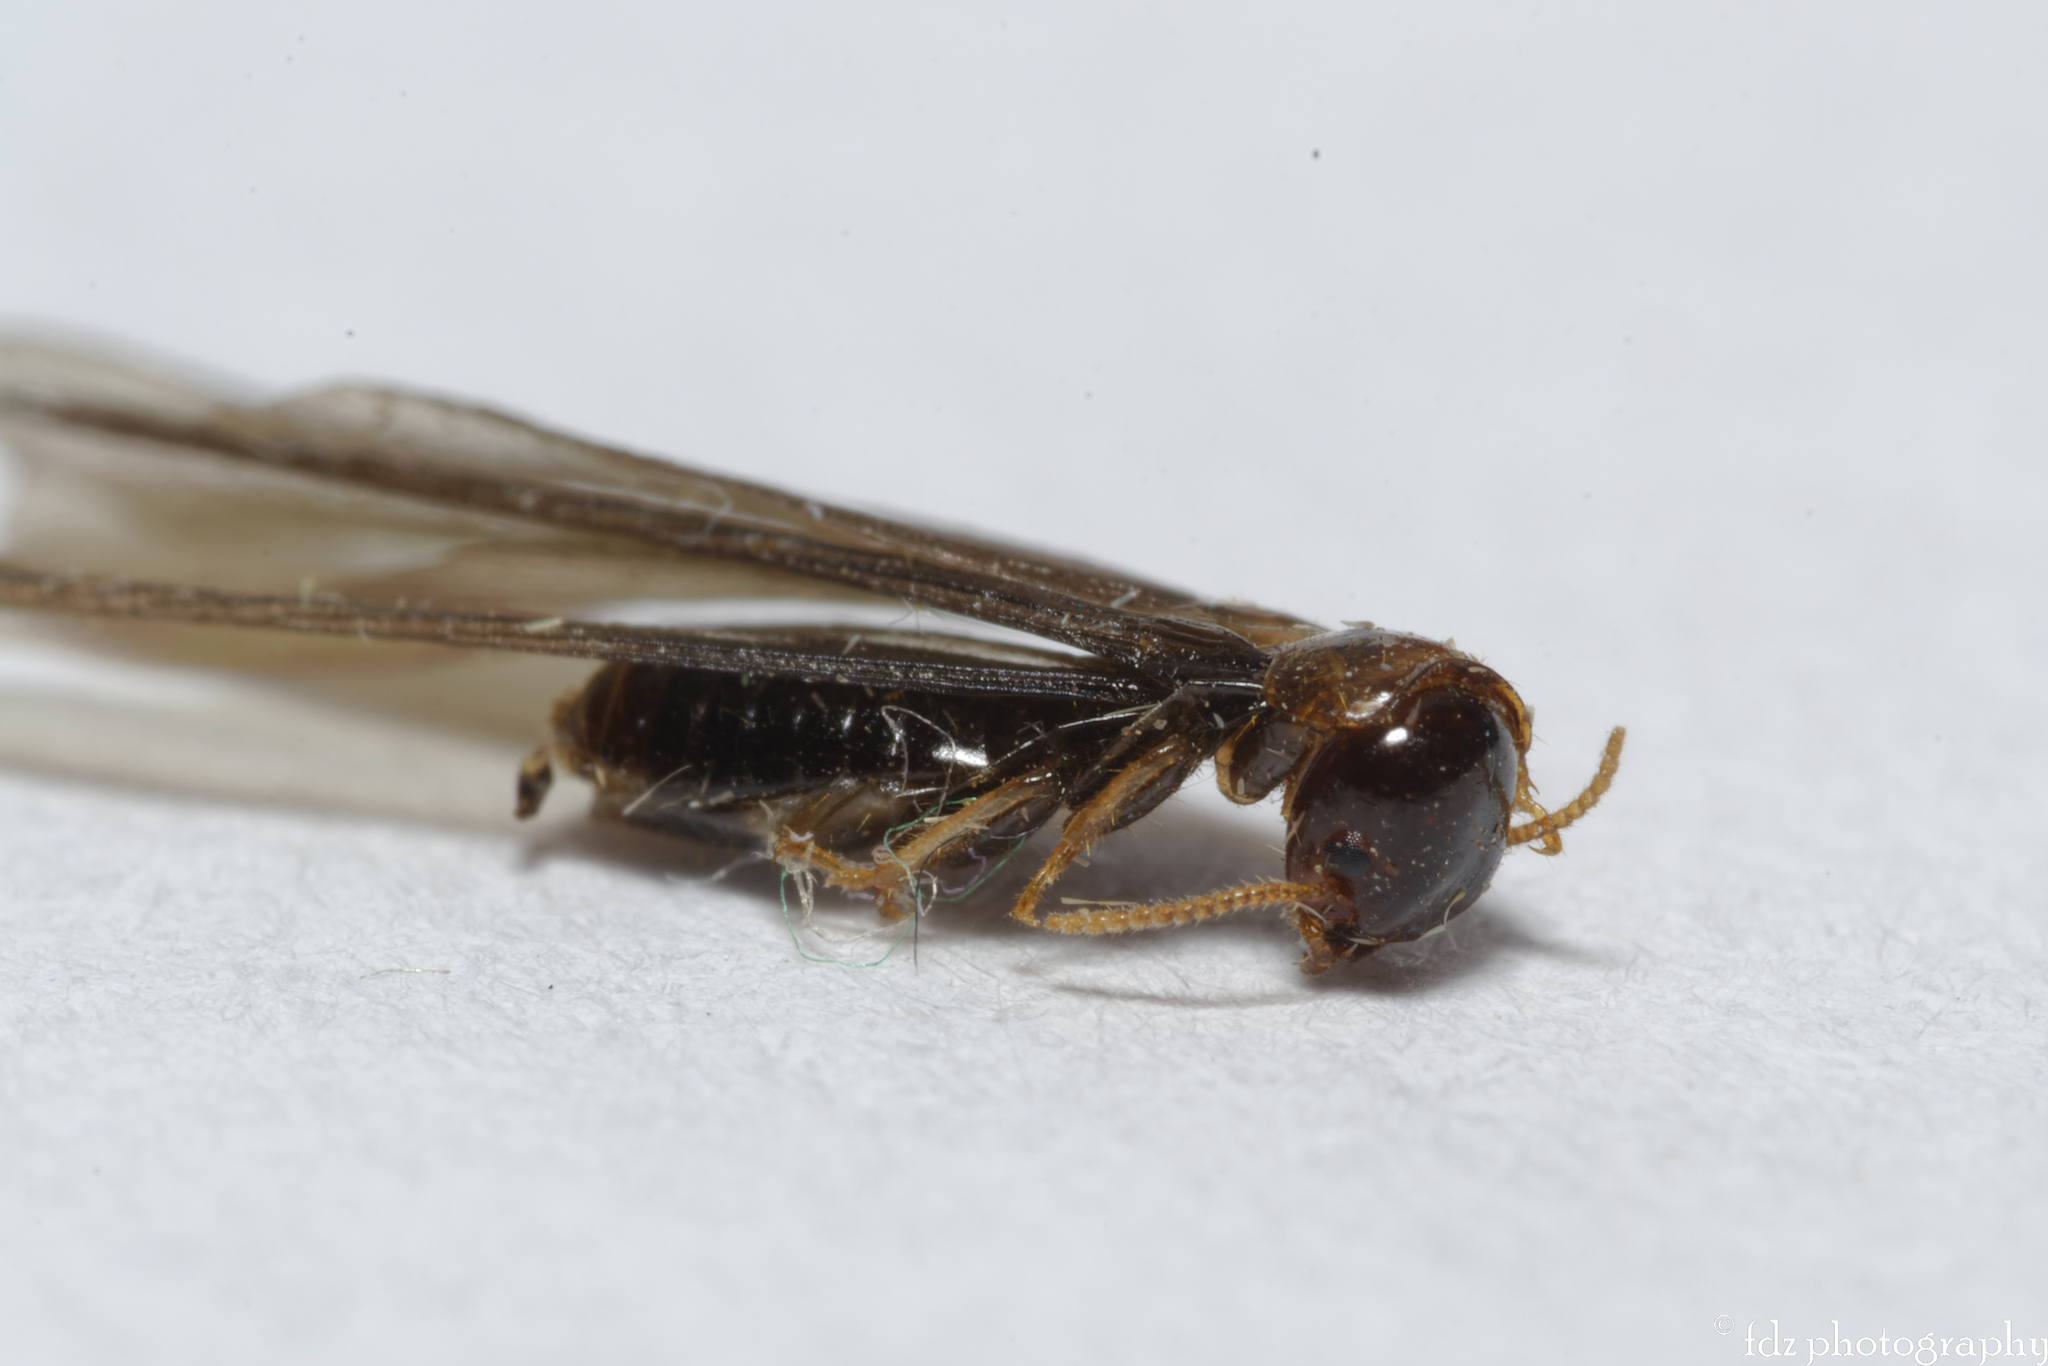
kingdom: Animalia
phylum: Arthropoda
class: Insecta
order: Blattodea
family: Kalotermitidae
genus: Kalotermes
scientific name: Kalotermes flavicollis
